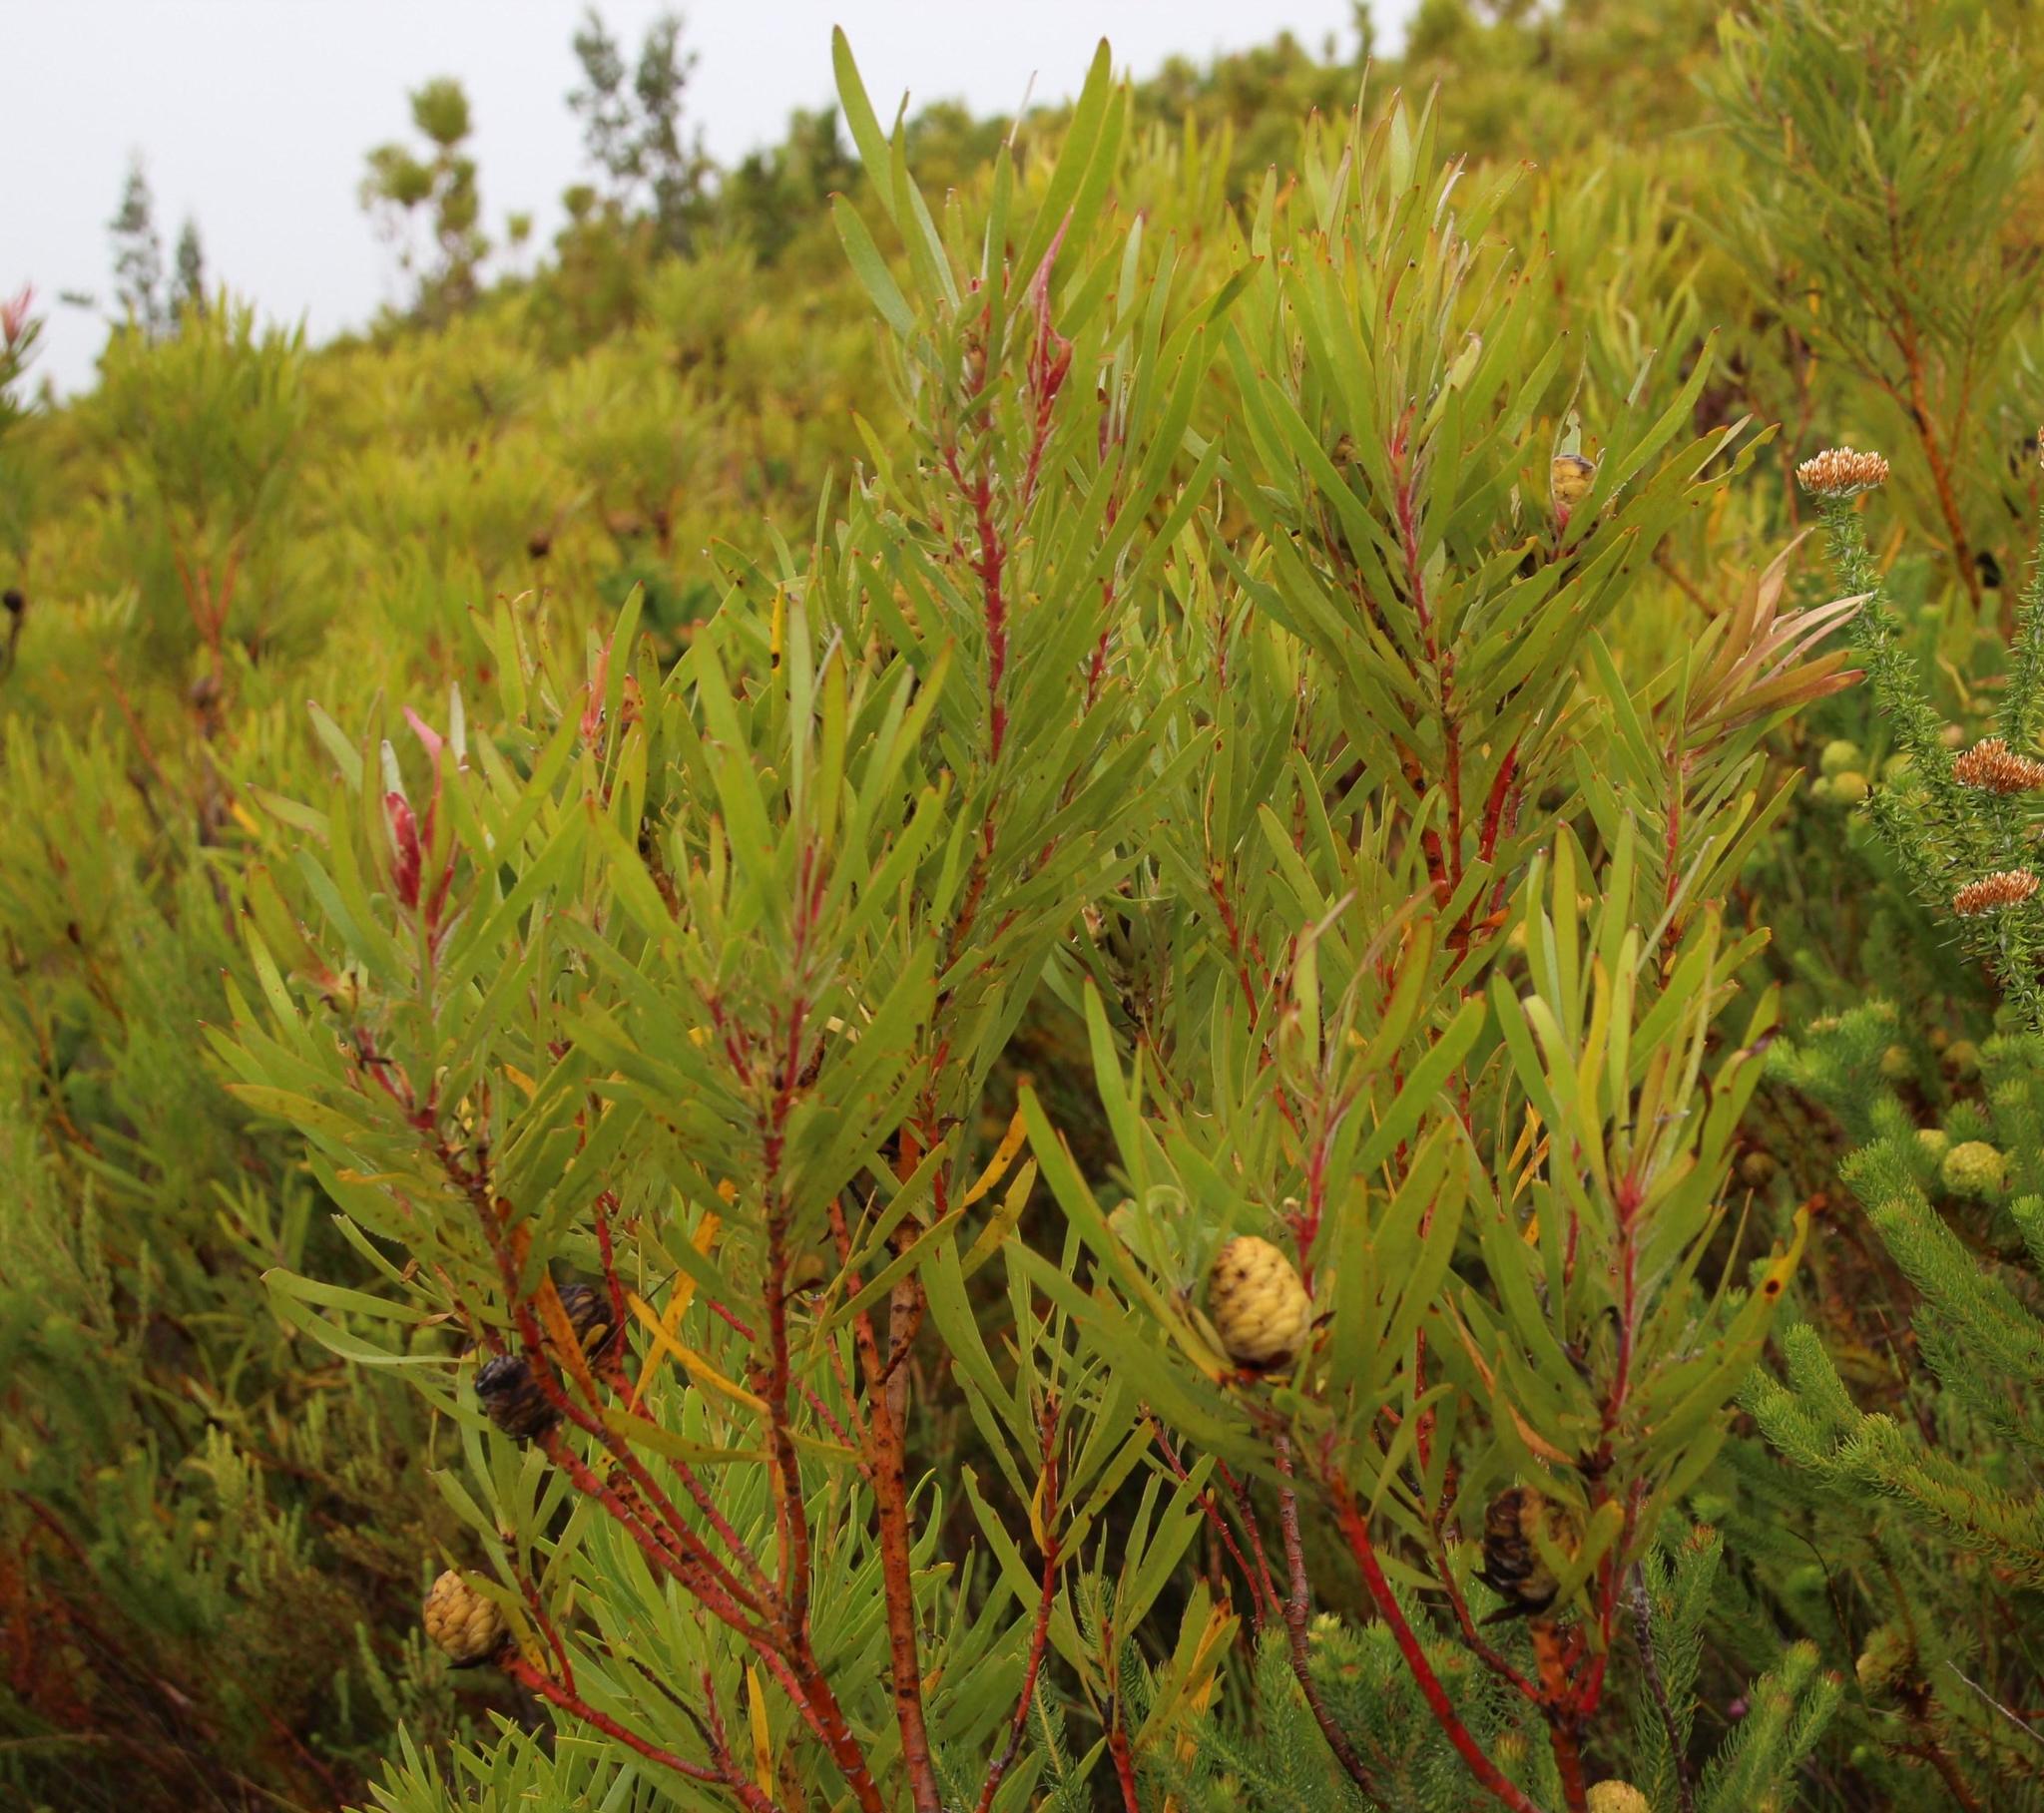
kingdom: Plantae
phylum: Tracheophyta
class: Magnoliopsida
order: Proteales
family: Proteaceae
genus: Leucadendron
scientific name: Leucadendron eucalyptifolium
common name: Gum-leaved conebush
